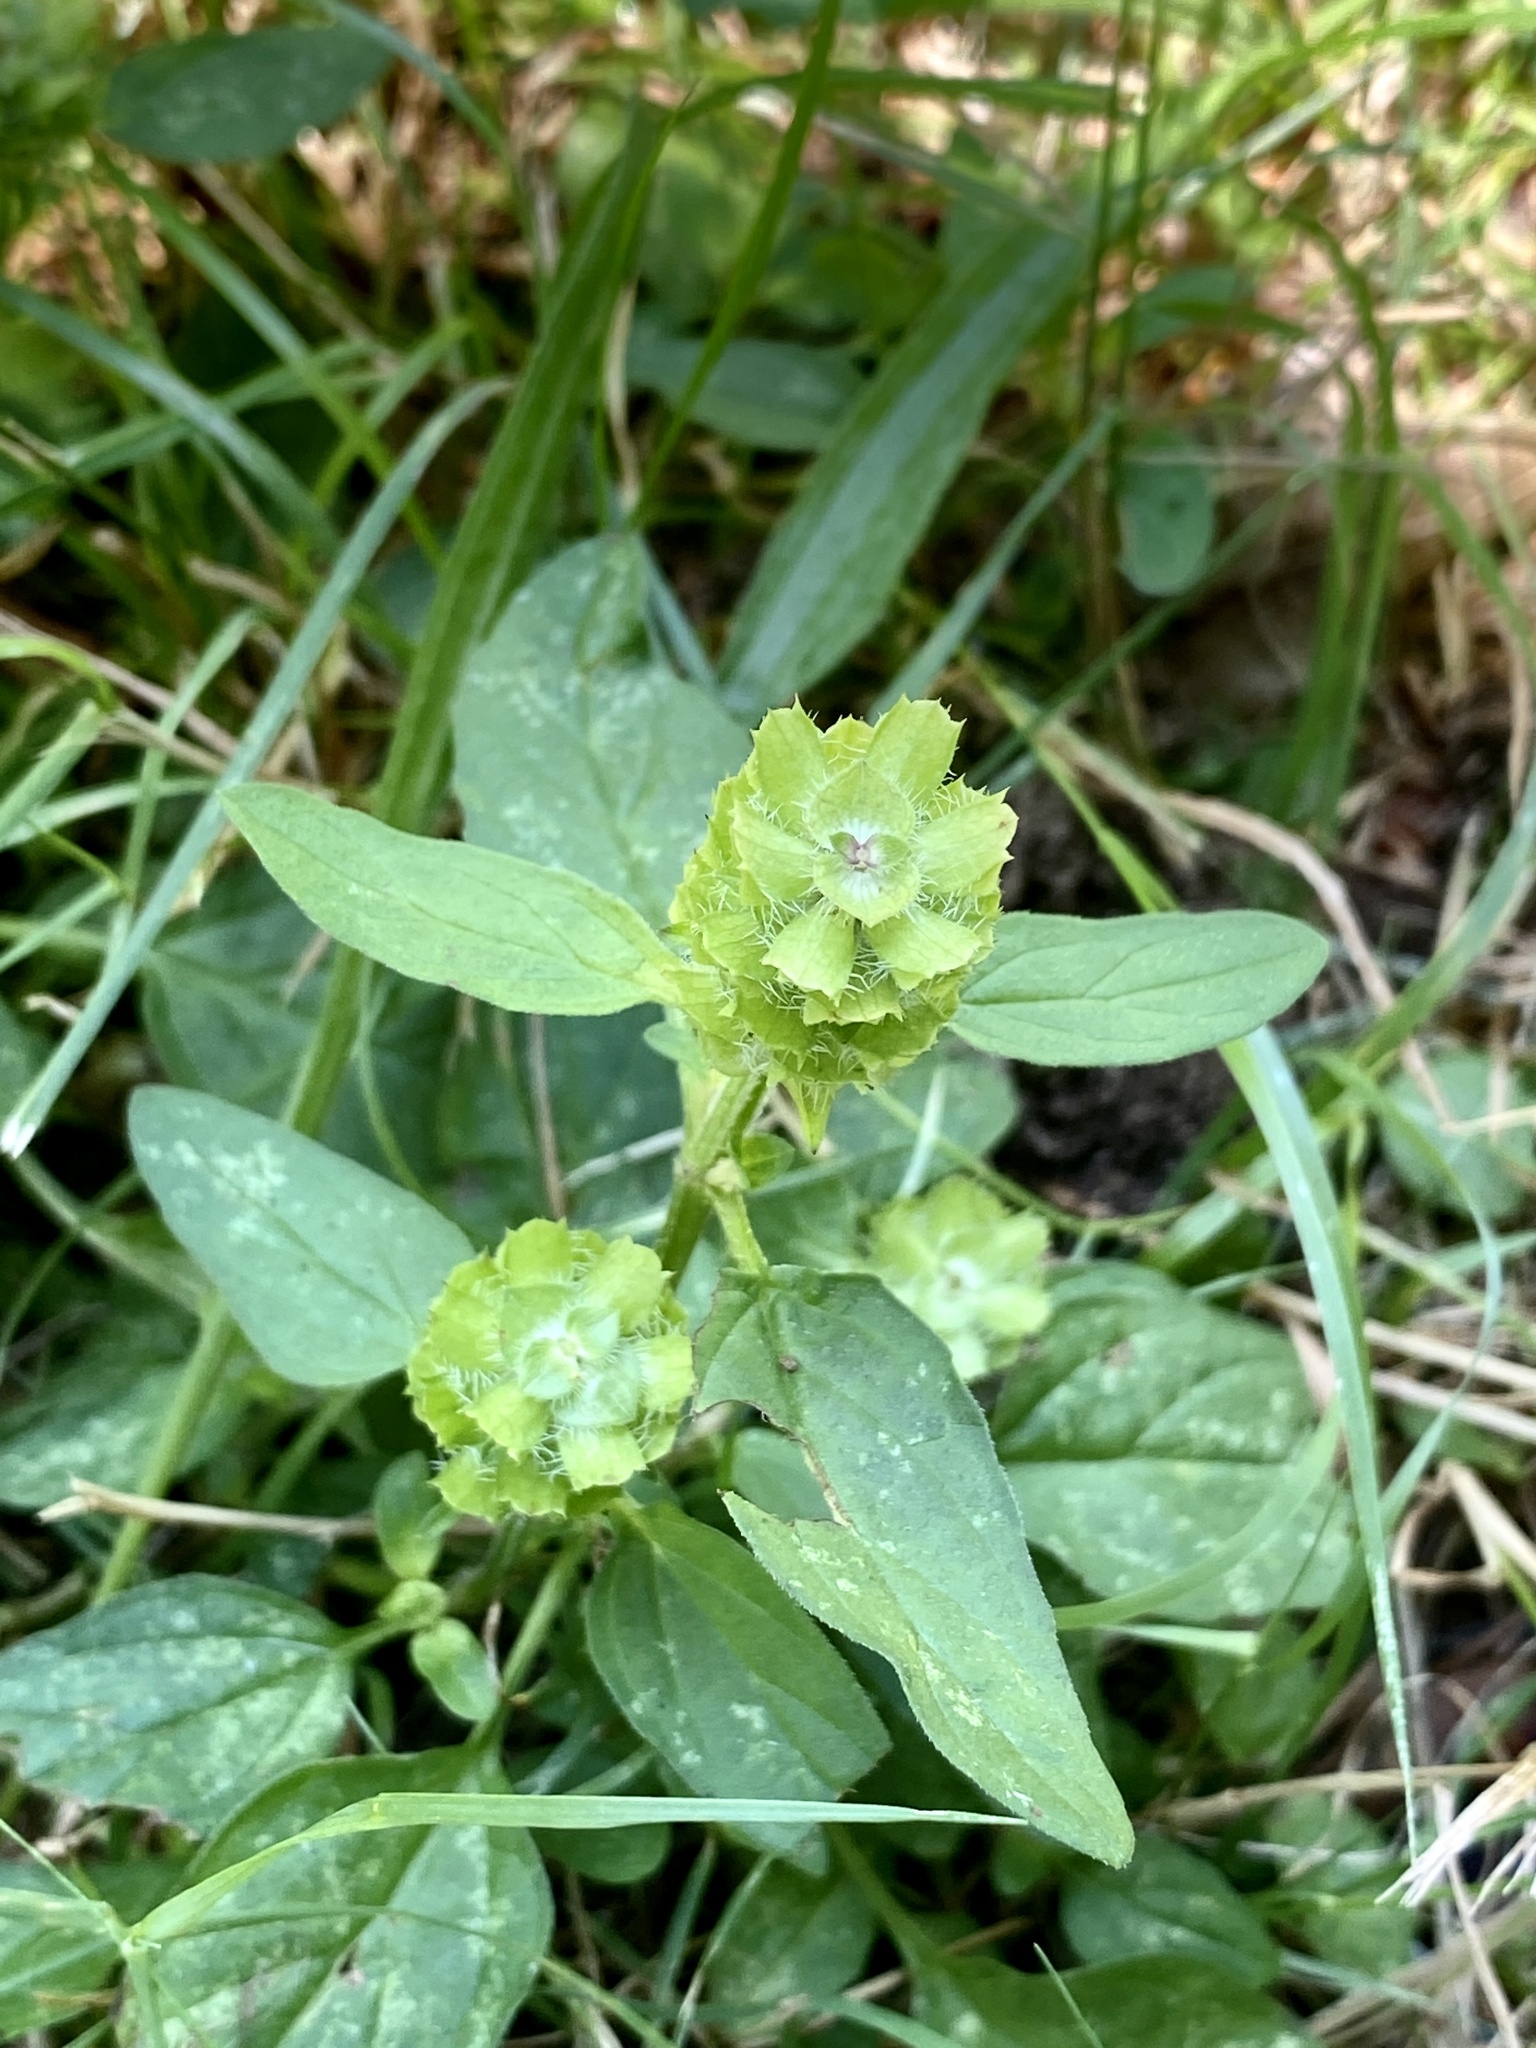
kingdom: Plantae
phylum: Tracheophyta
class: Magnoliopsida
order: Lamiales
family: Lamiaceae
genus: Prunella
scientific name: Prunella vulgaris
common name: Heal-all
